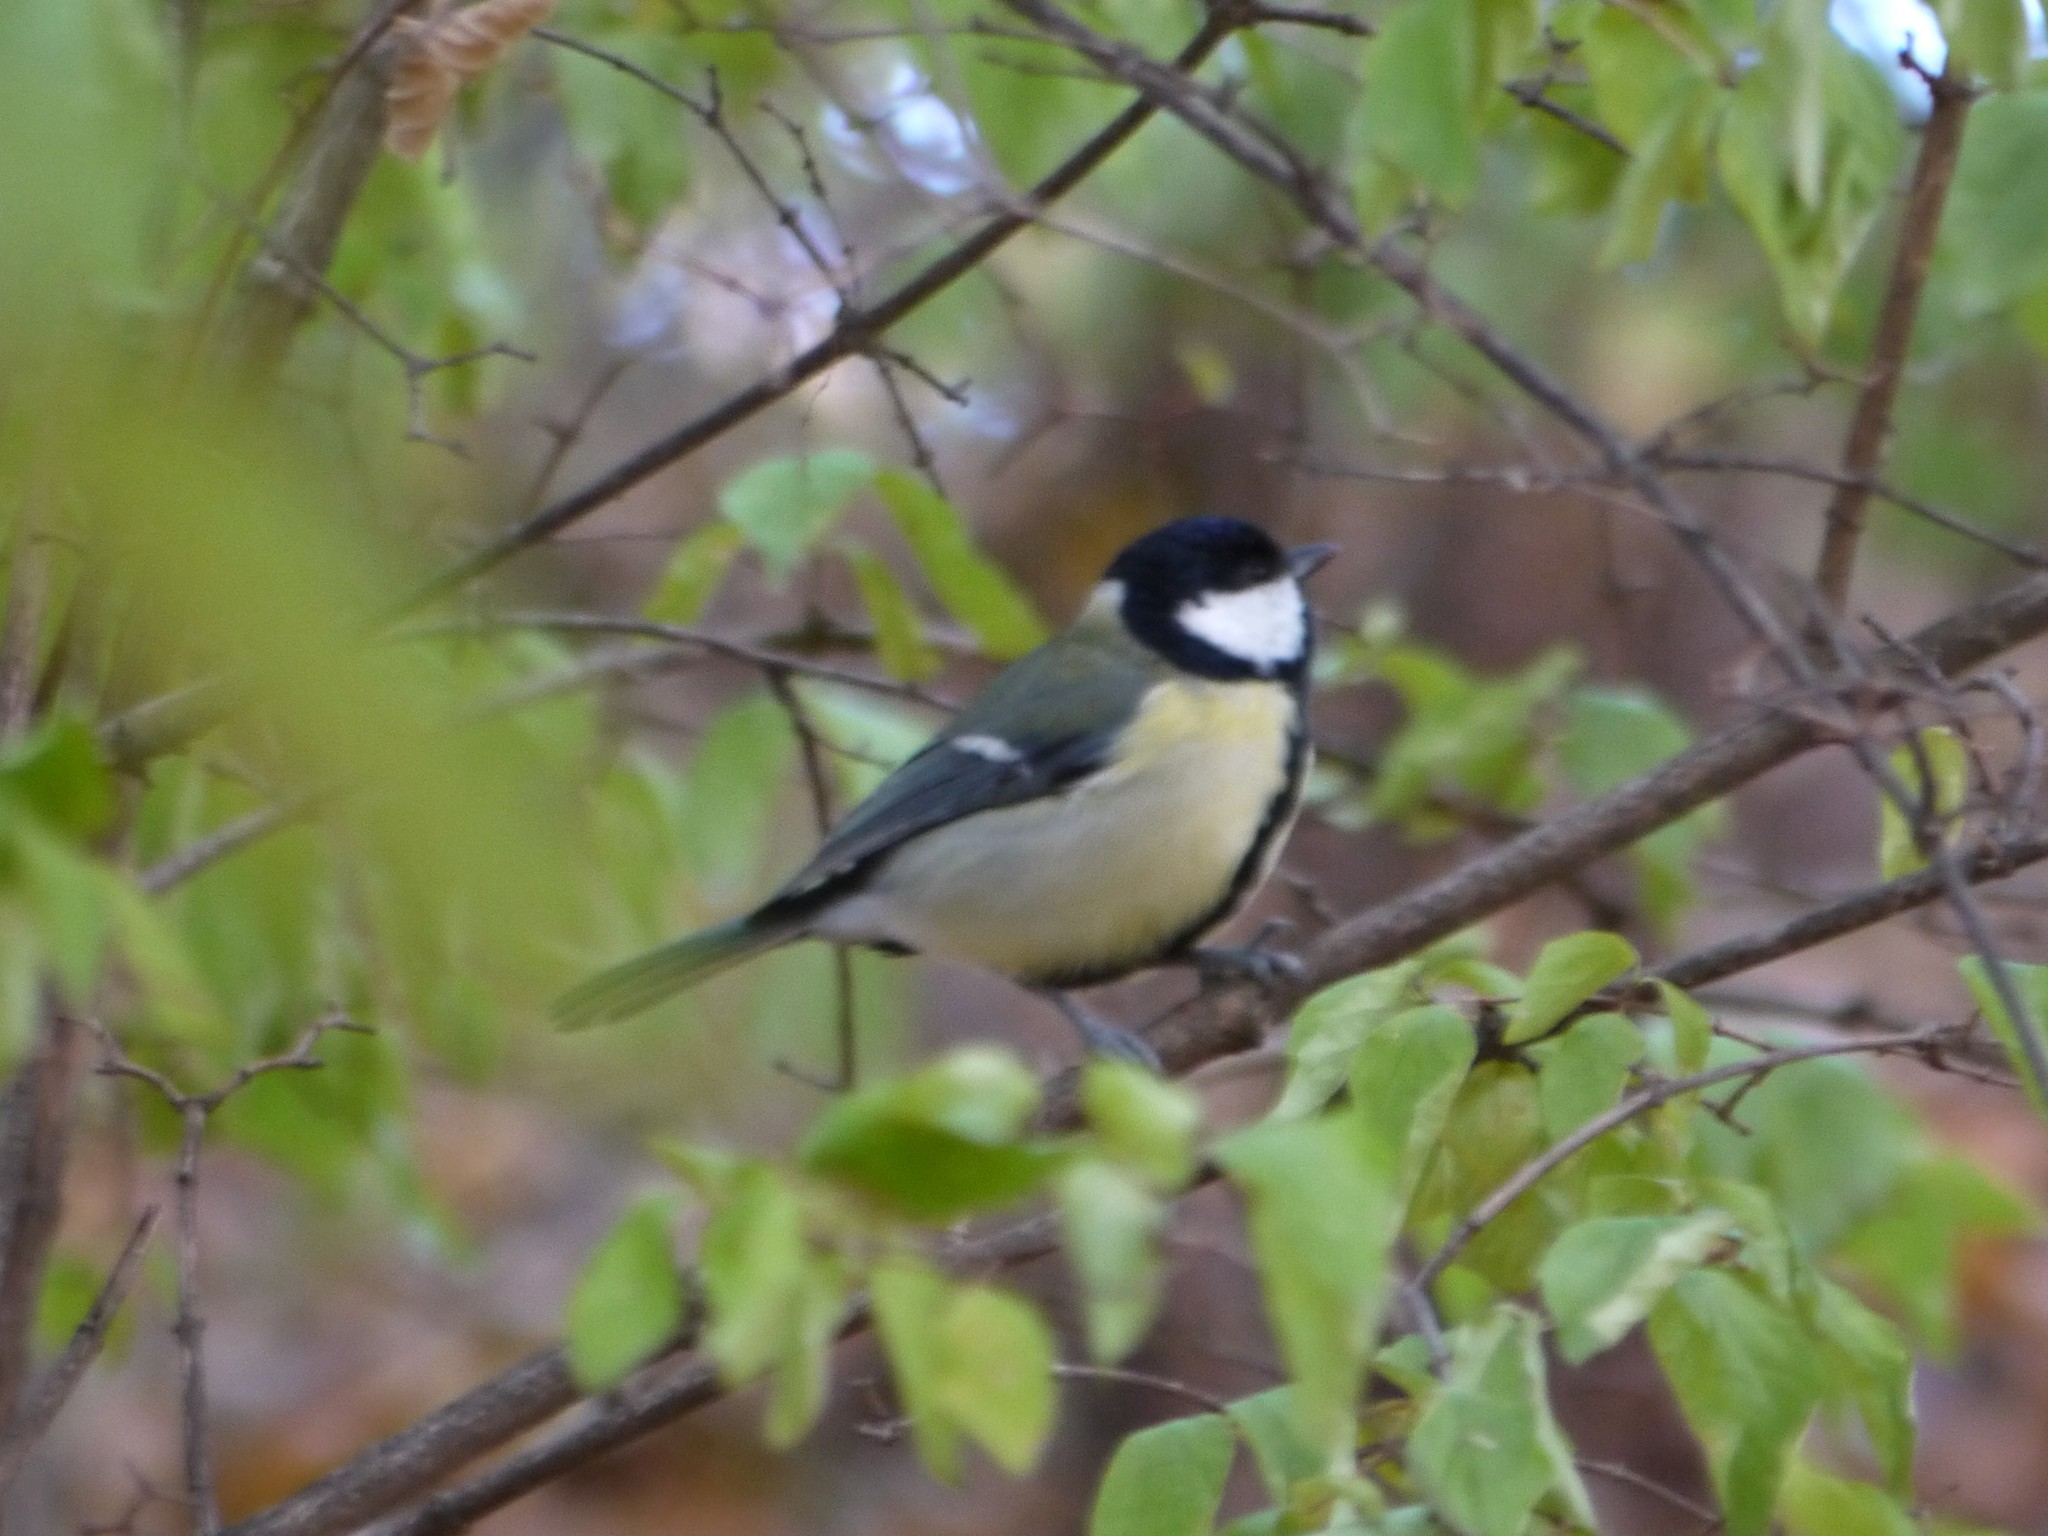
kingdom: Animalia
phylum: Chordata
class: Aves
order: Passeriformes
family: Paridae
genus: Parus
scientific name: Parus major
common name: Great tit
